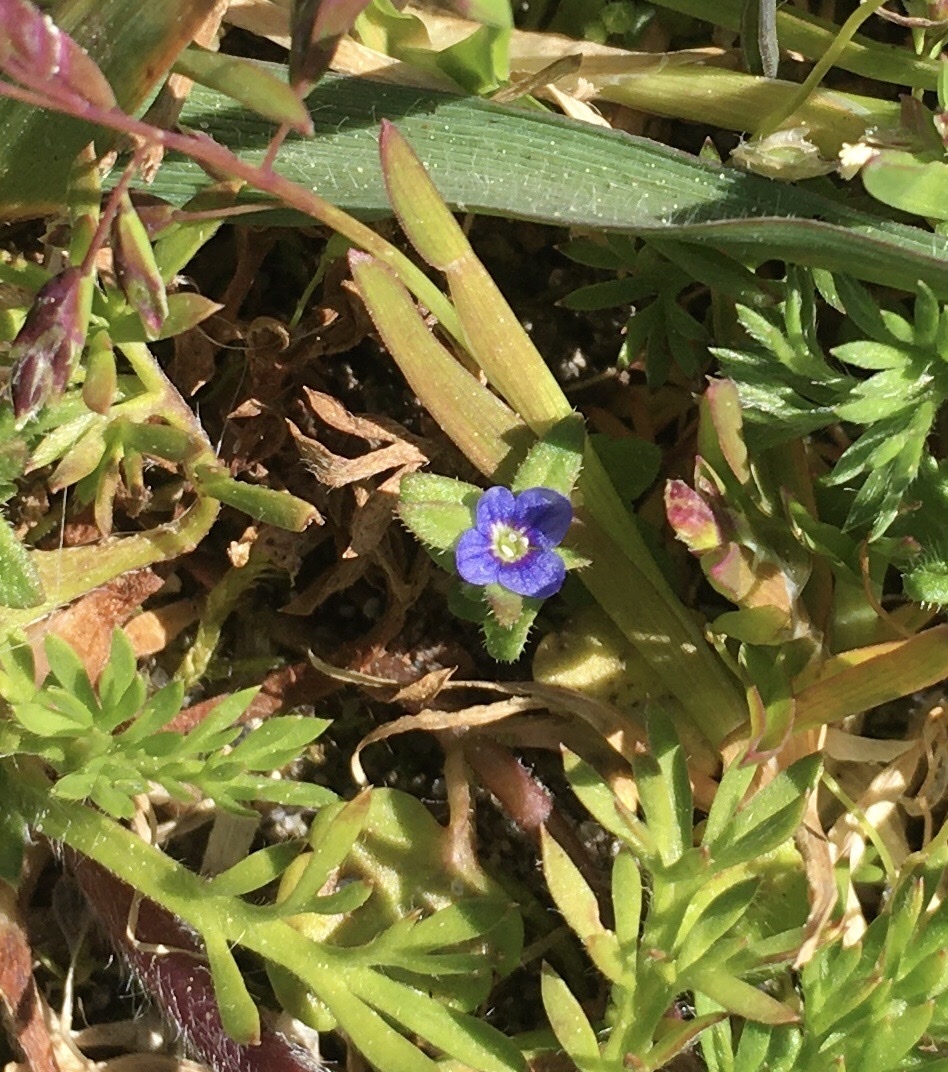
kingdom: Plantae
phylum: Tracheophyta
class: Magnoliopsida
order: Lamiales
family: Plantaginaceae
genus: Veronica
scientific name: Veronica arvensis
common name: Corn speedwell
